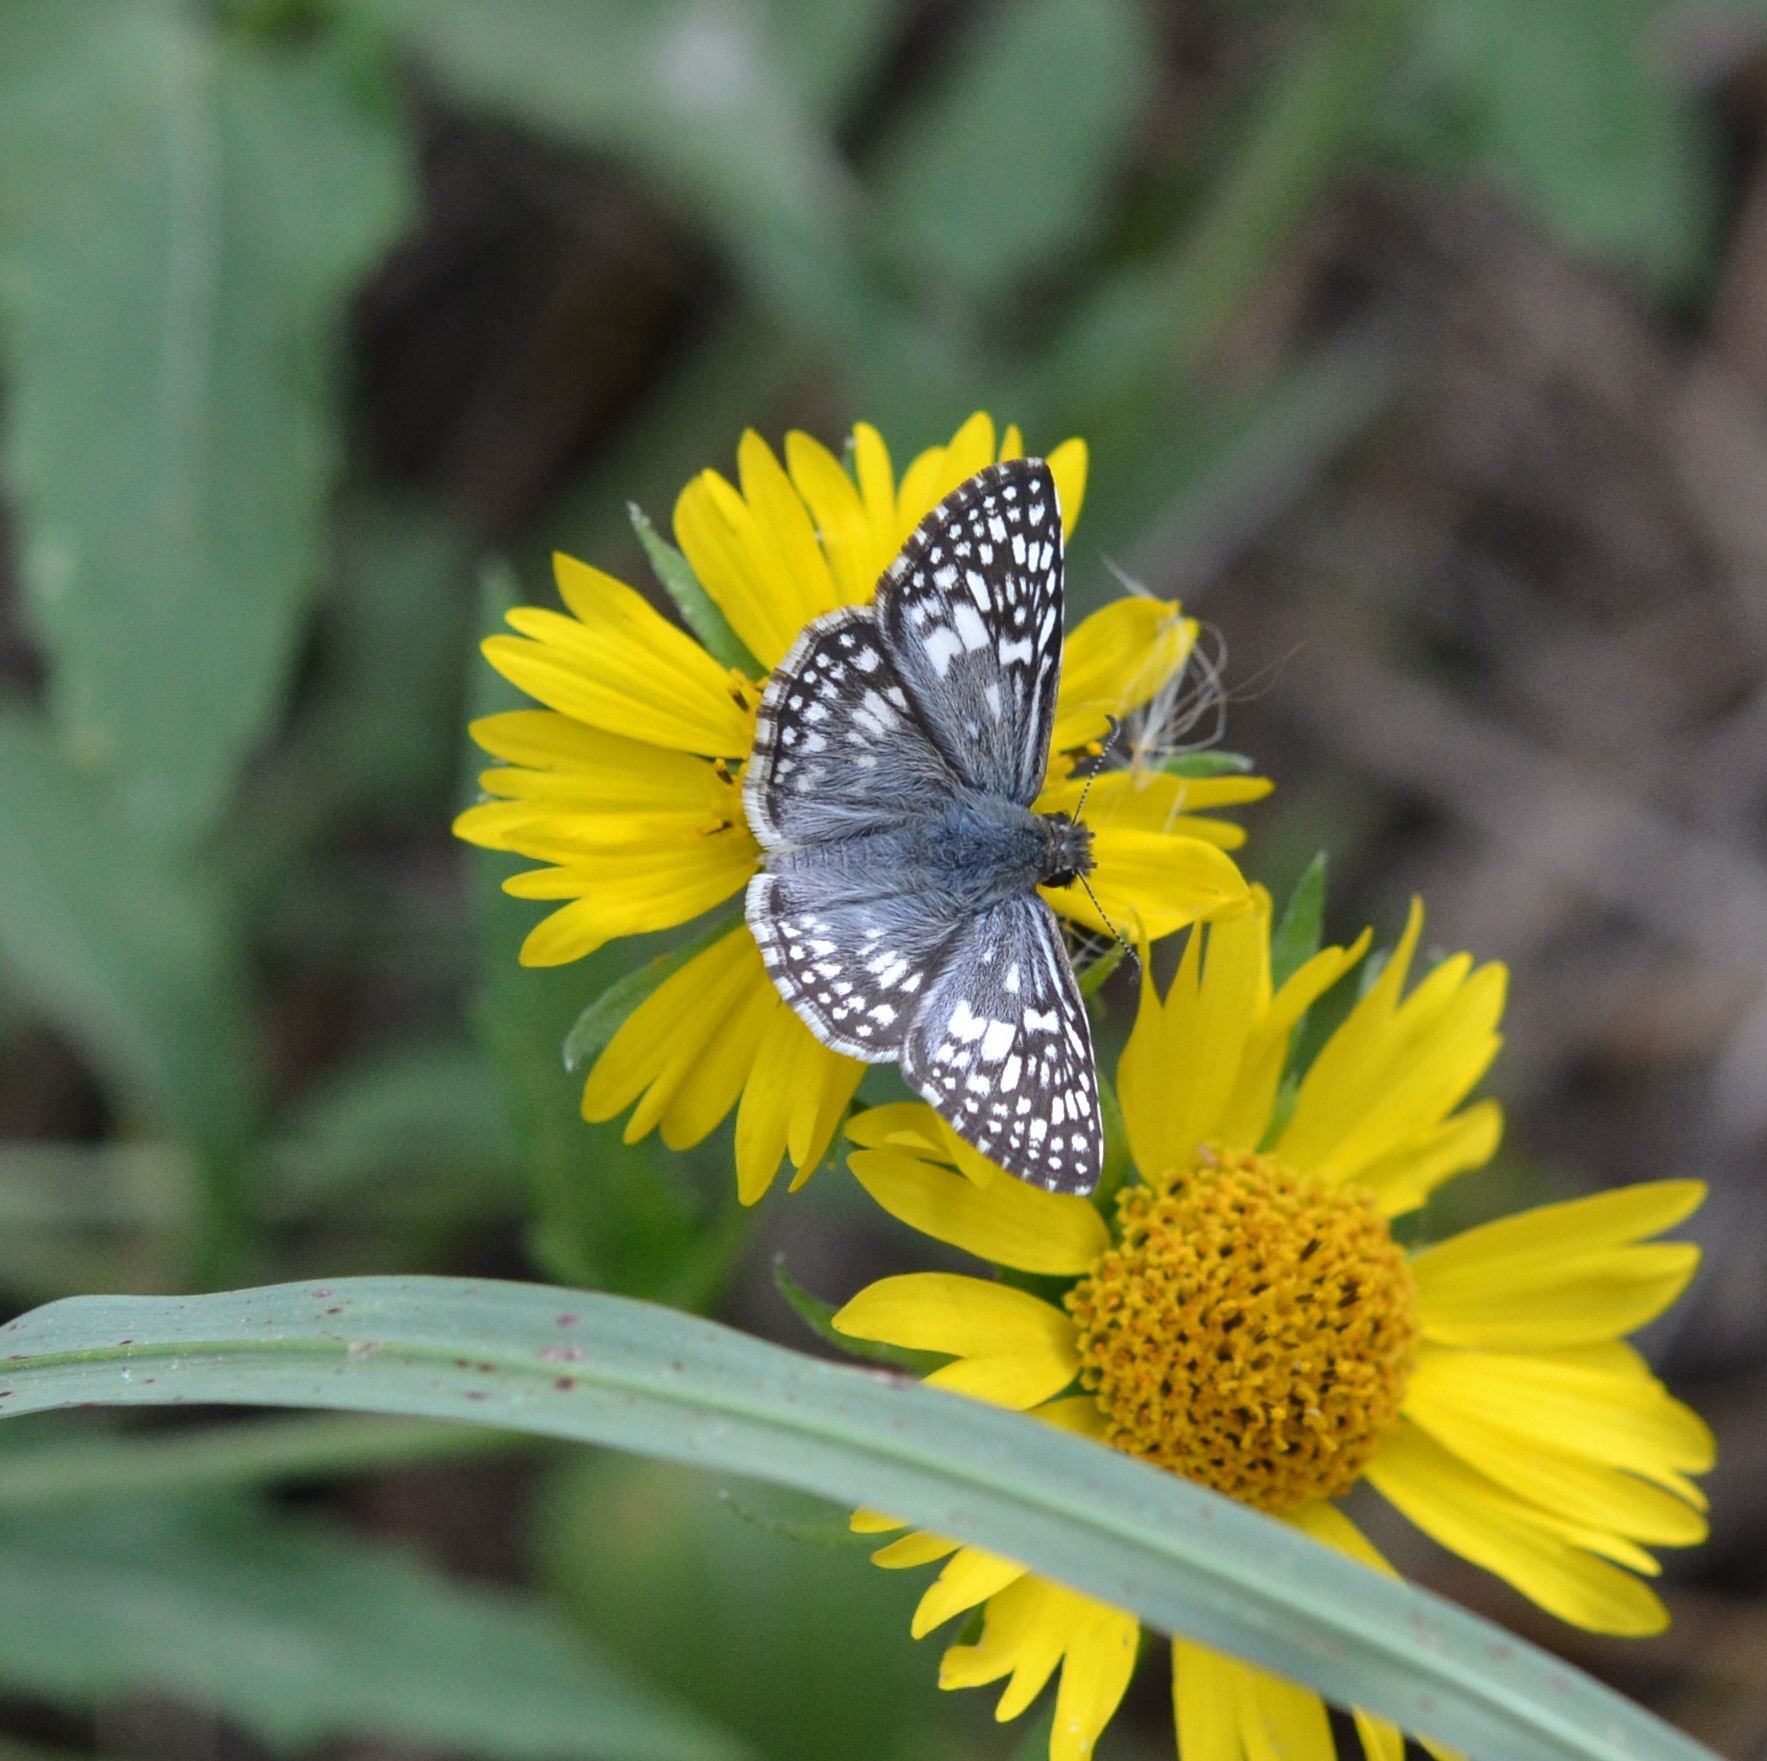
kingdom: Animalia
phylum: Arthropoda
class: Insecta
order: Lepidoptera
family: Hesperiidae
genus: Pyrgus
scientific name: Pyrgus oileus
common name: Tropical checkered-skipper
